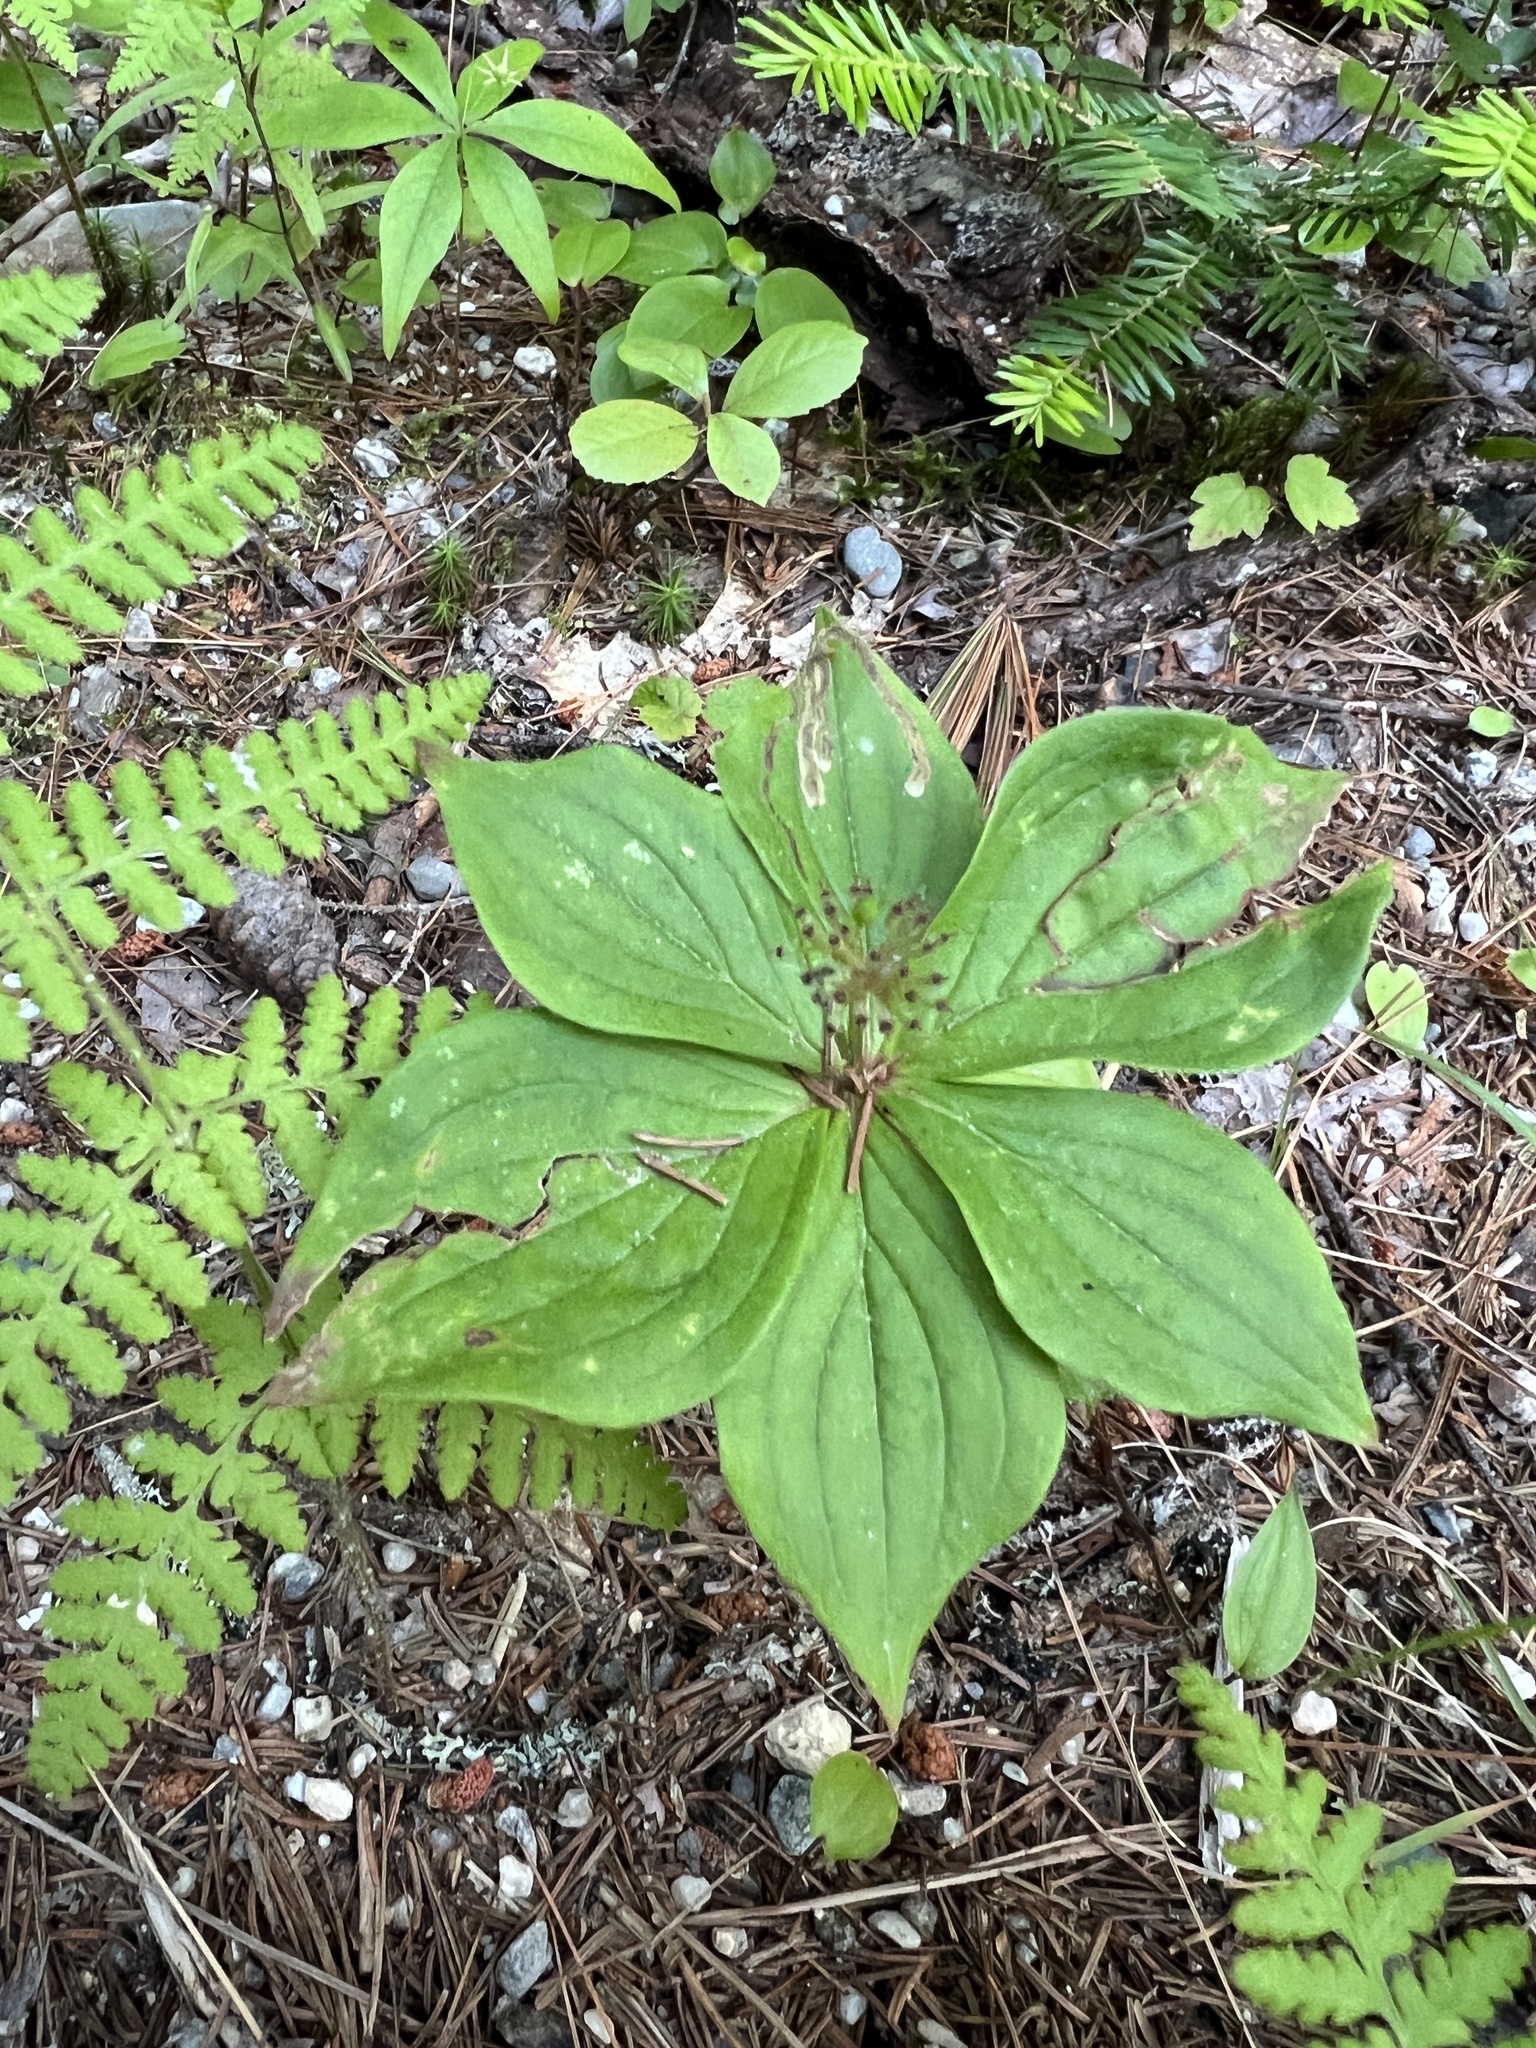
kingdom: Plantae
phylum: Tracheophyta
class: Magnoliopsida
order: Cornales
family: Cornaceae
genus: Cornus
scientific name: Cornus canadensis
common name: Creeping dogwood
